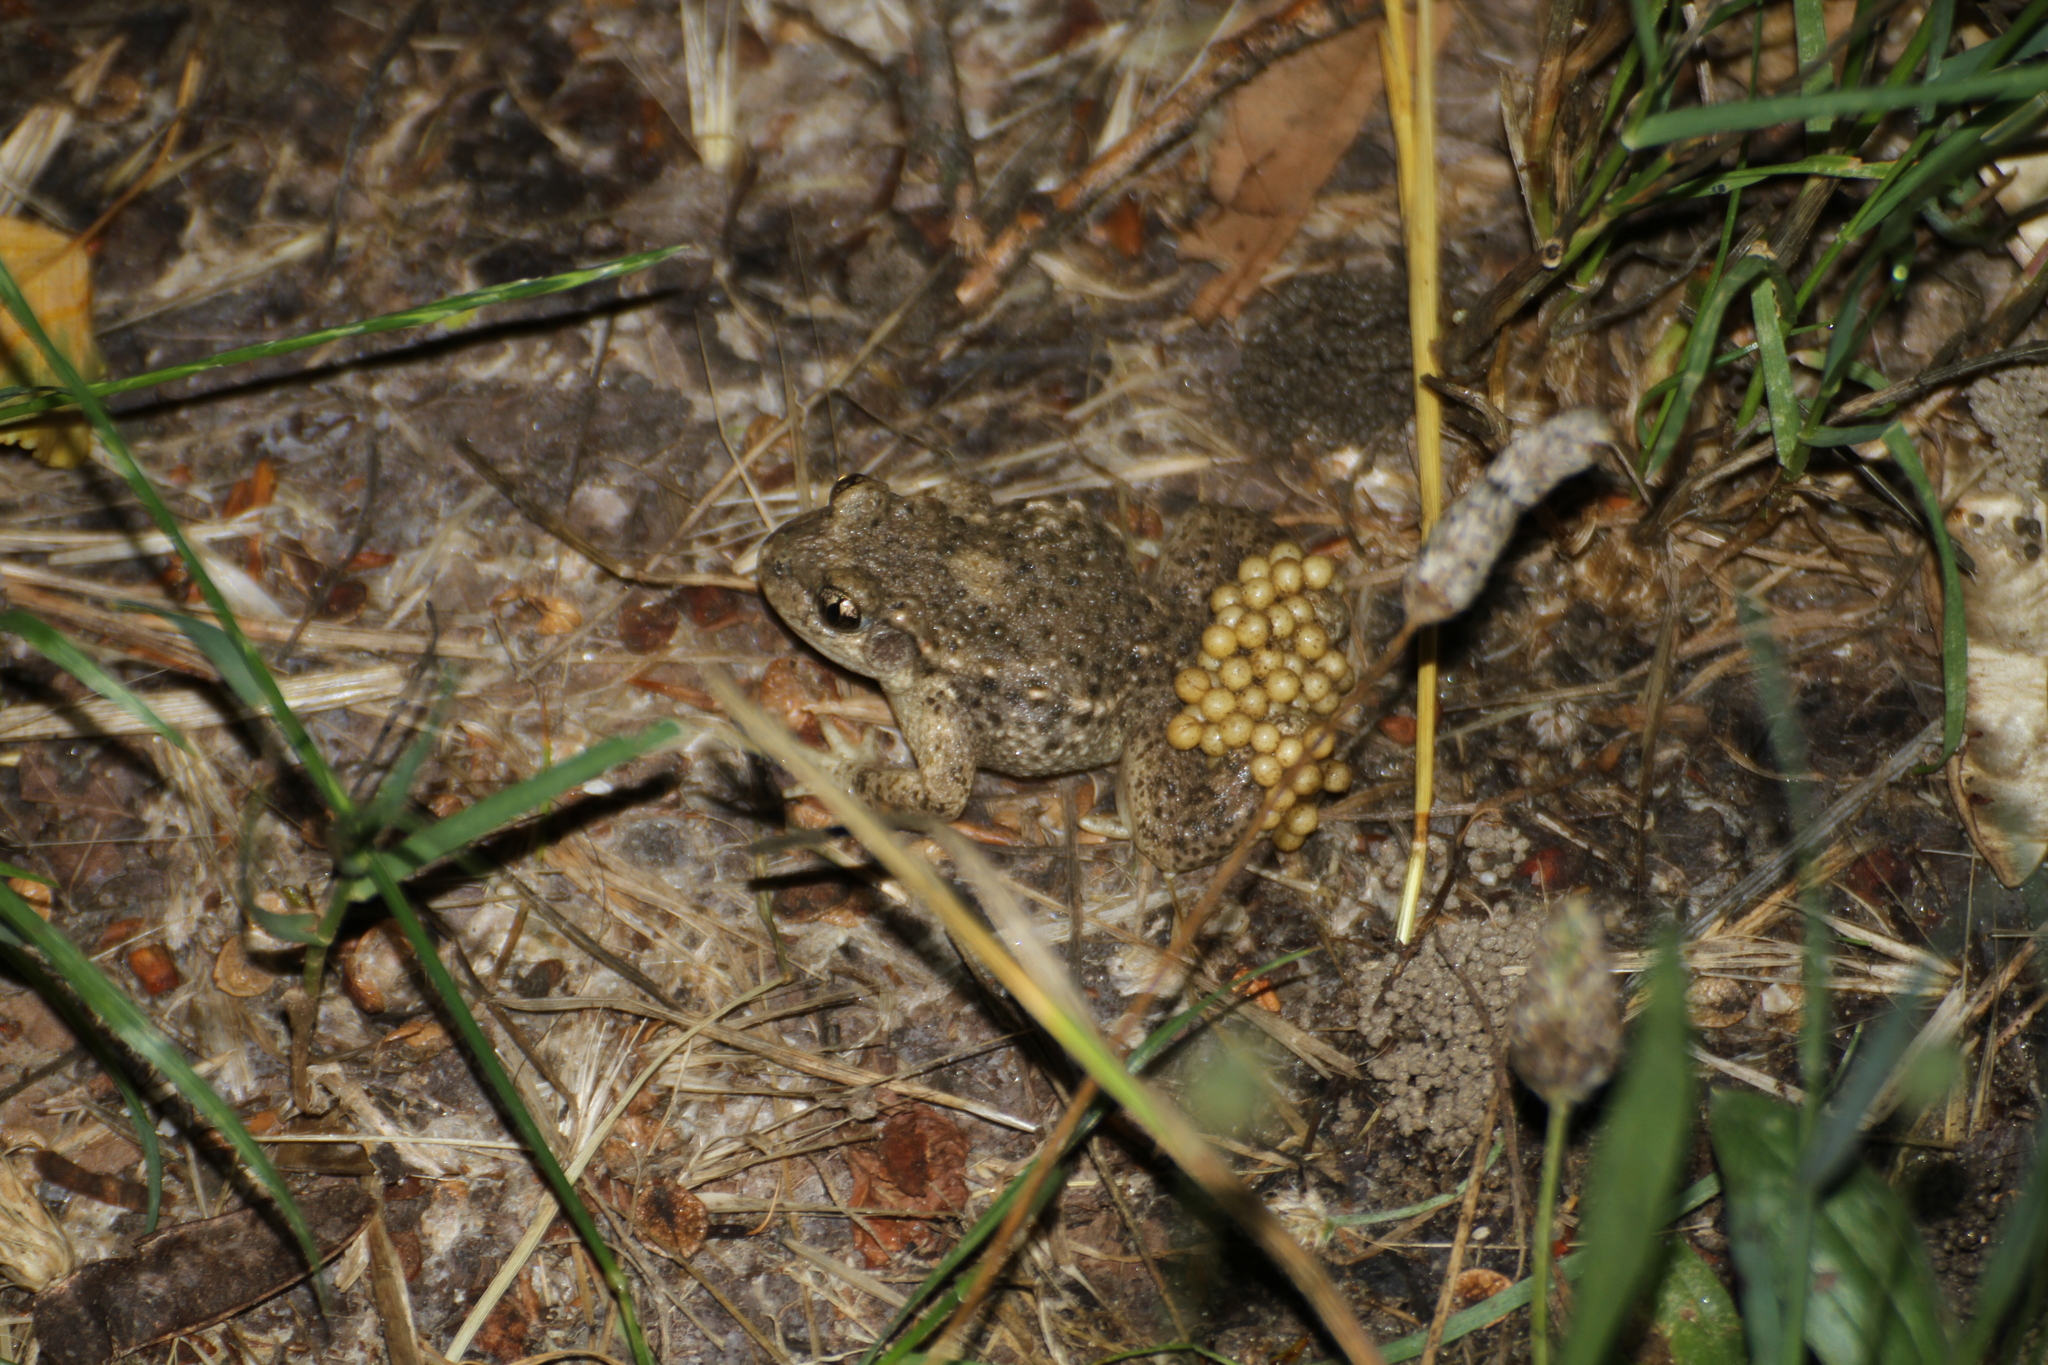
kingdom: Animalia
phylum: Chordata
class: Amphibia
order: Anura
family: Alytidae
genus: Alytes
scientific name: Alytes obstetricans
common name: Midwife toad
